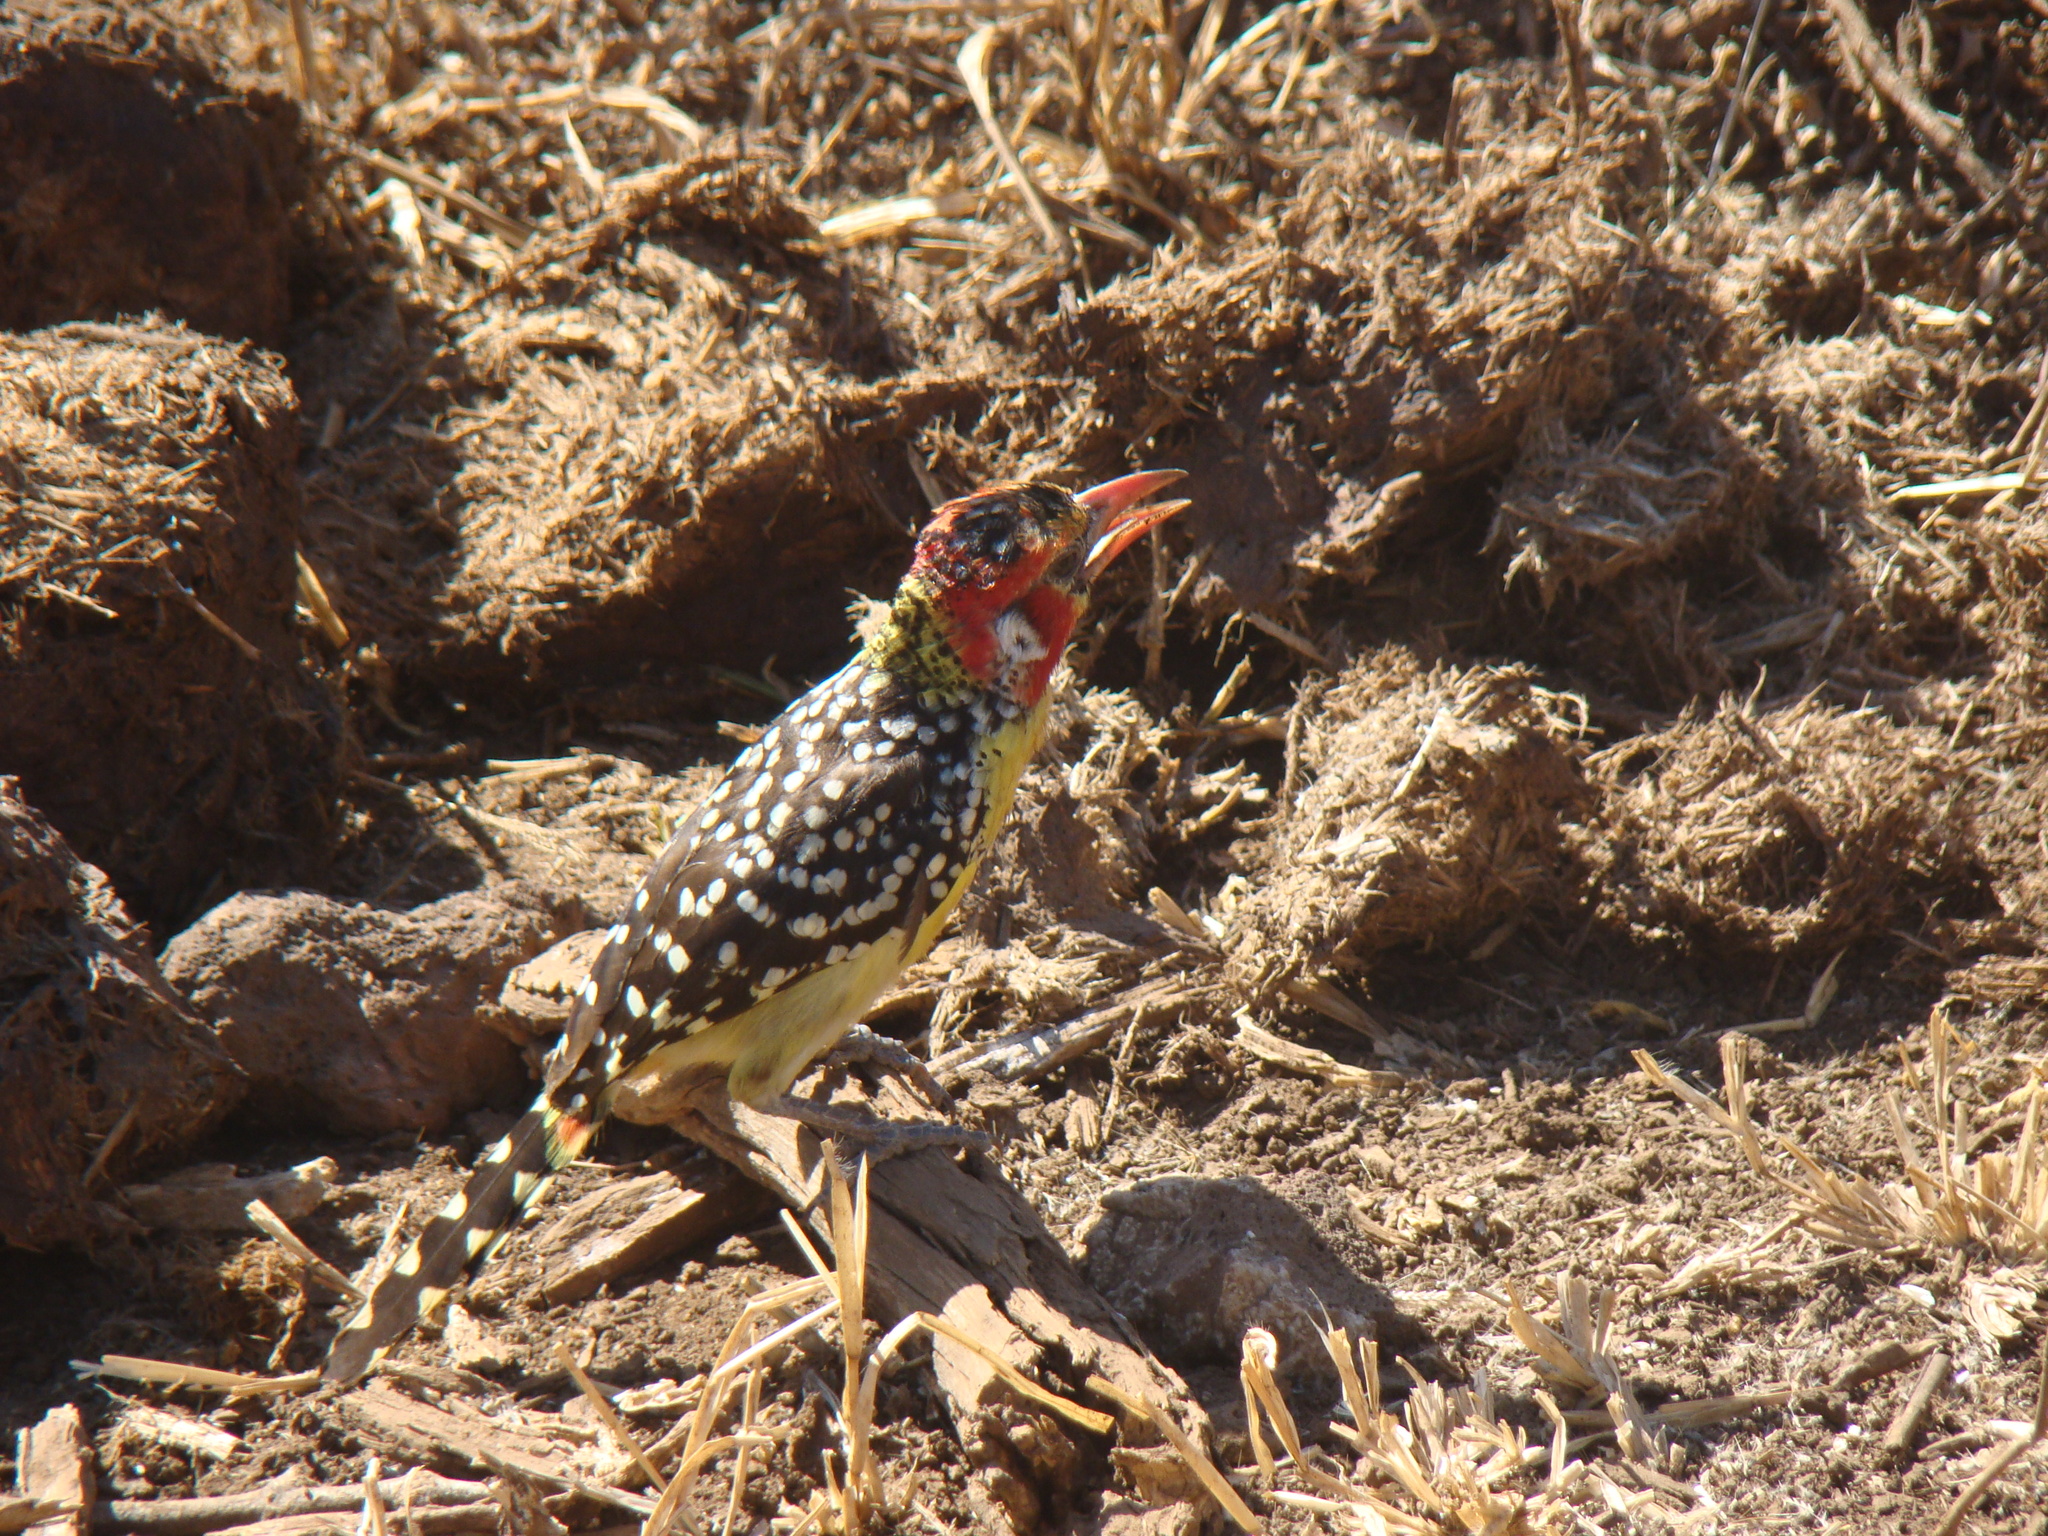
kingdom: Animalia
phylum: Chordata
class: Aves
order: Piciformes
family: Lybiidae
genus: Trachyphonus
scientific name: Trachyphonus erythrocephalus
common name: Red-and-yellow barbet
